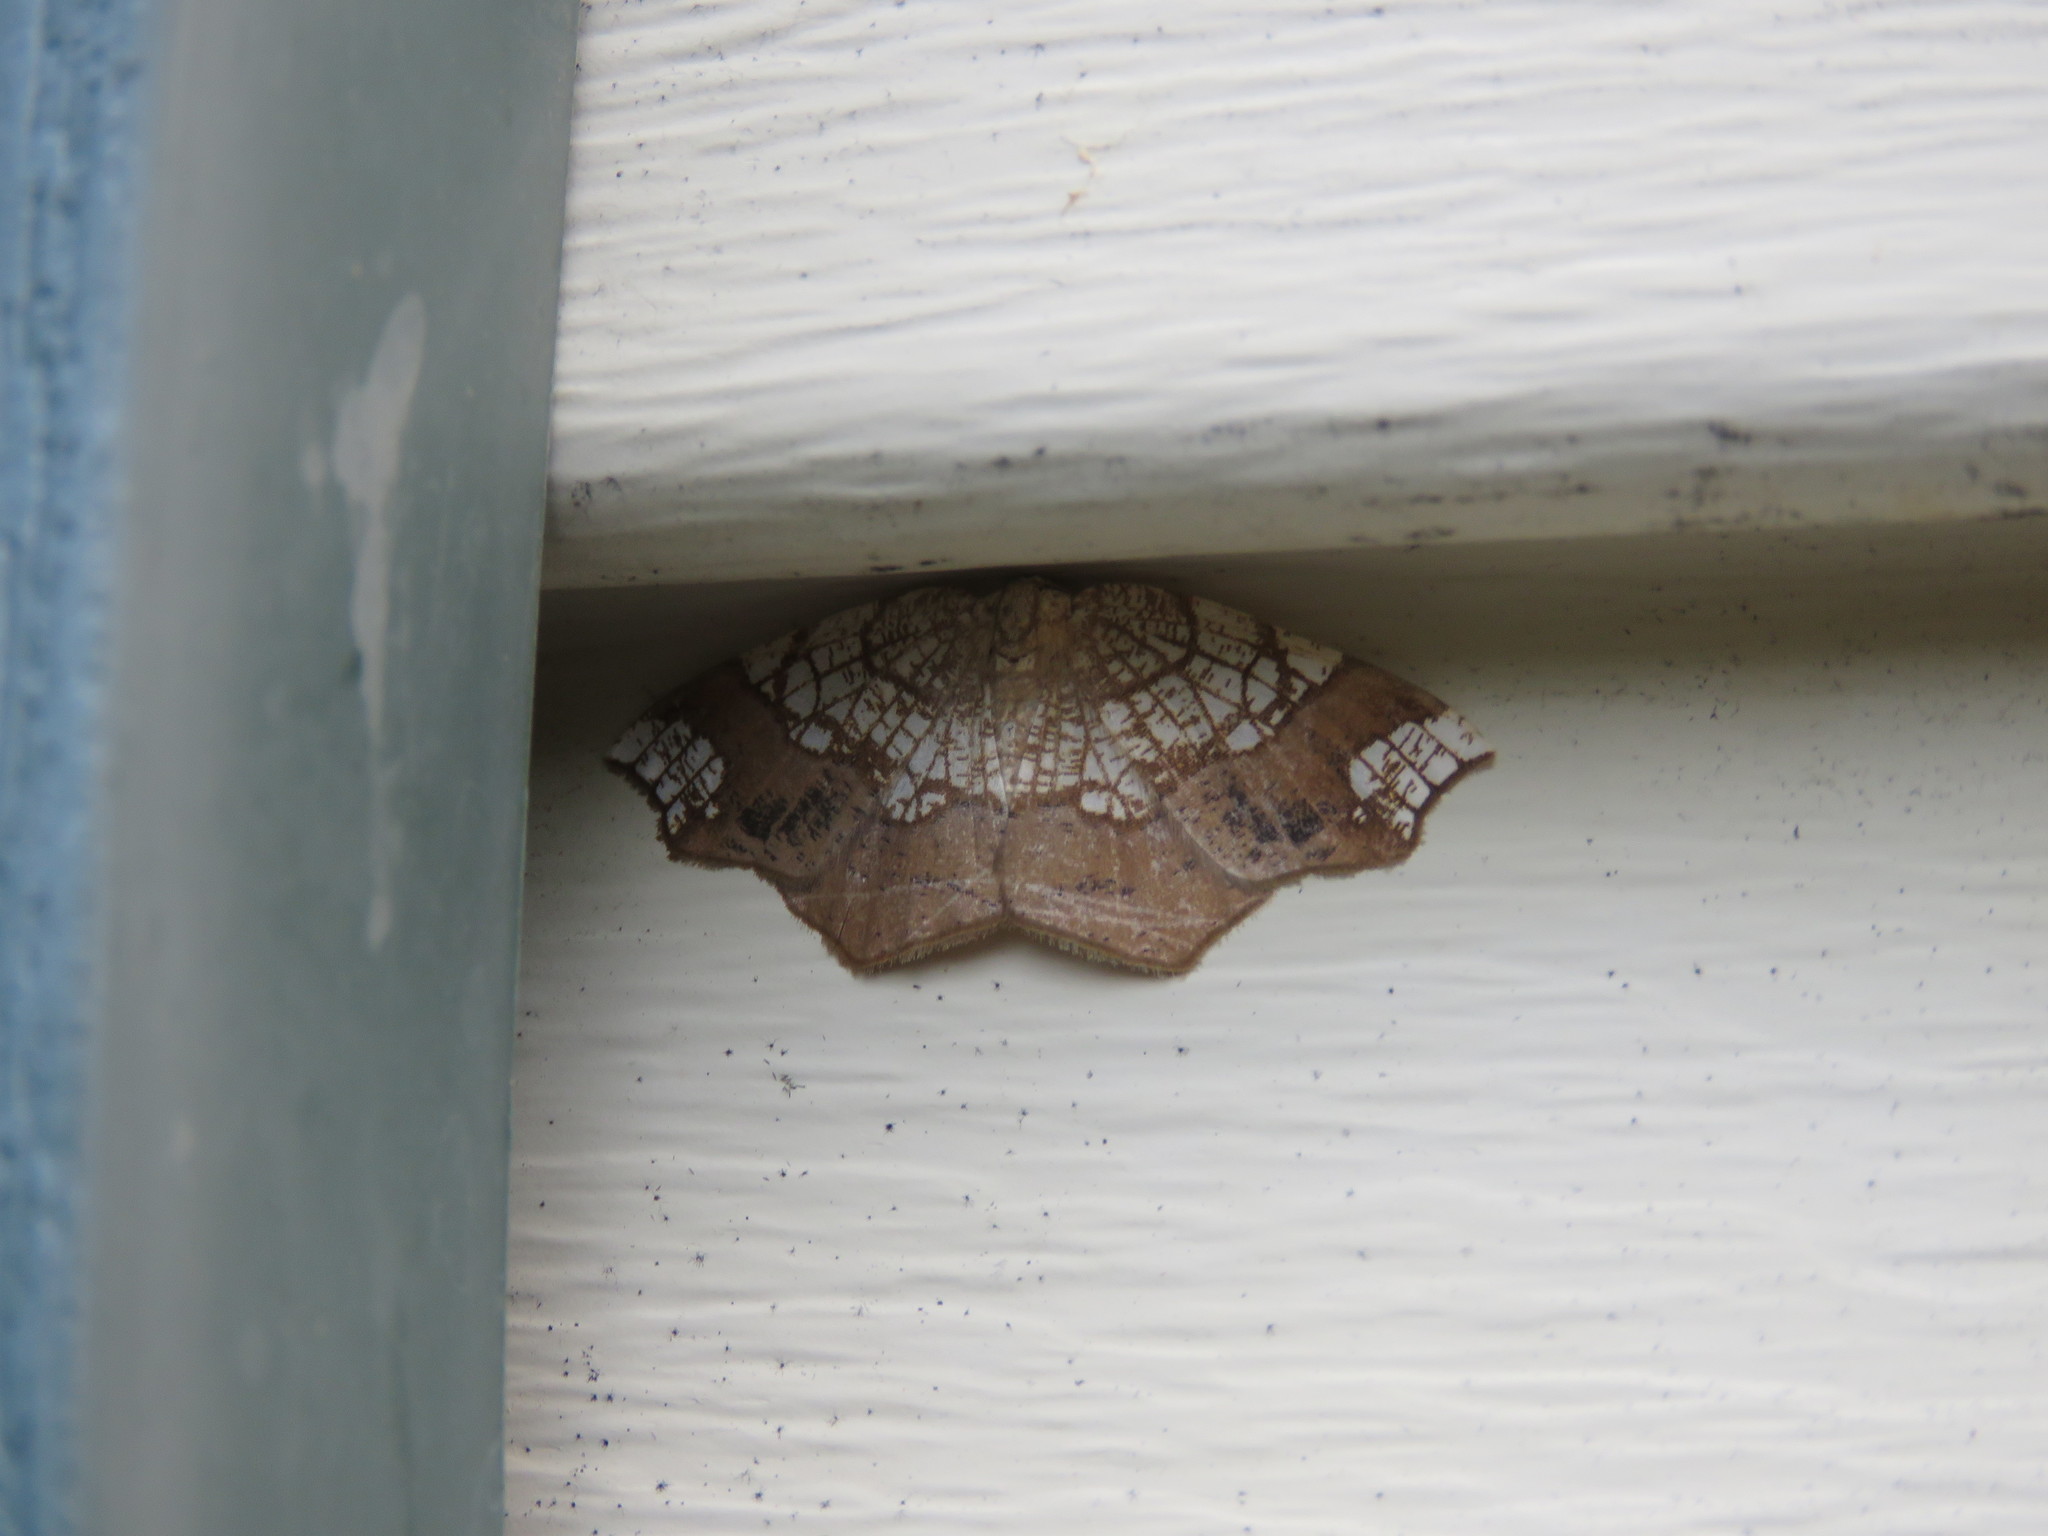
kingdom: Animalia
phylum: Arthropoda
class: Insecta
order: Lepidoptera
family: Geometridae
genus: Nematocampa
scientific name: Nematocampa resistaria
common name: Horned spanworm moth
